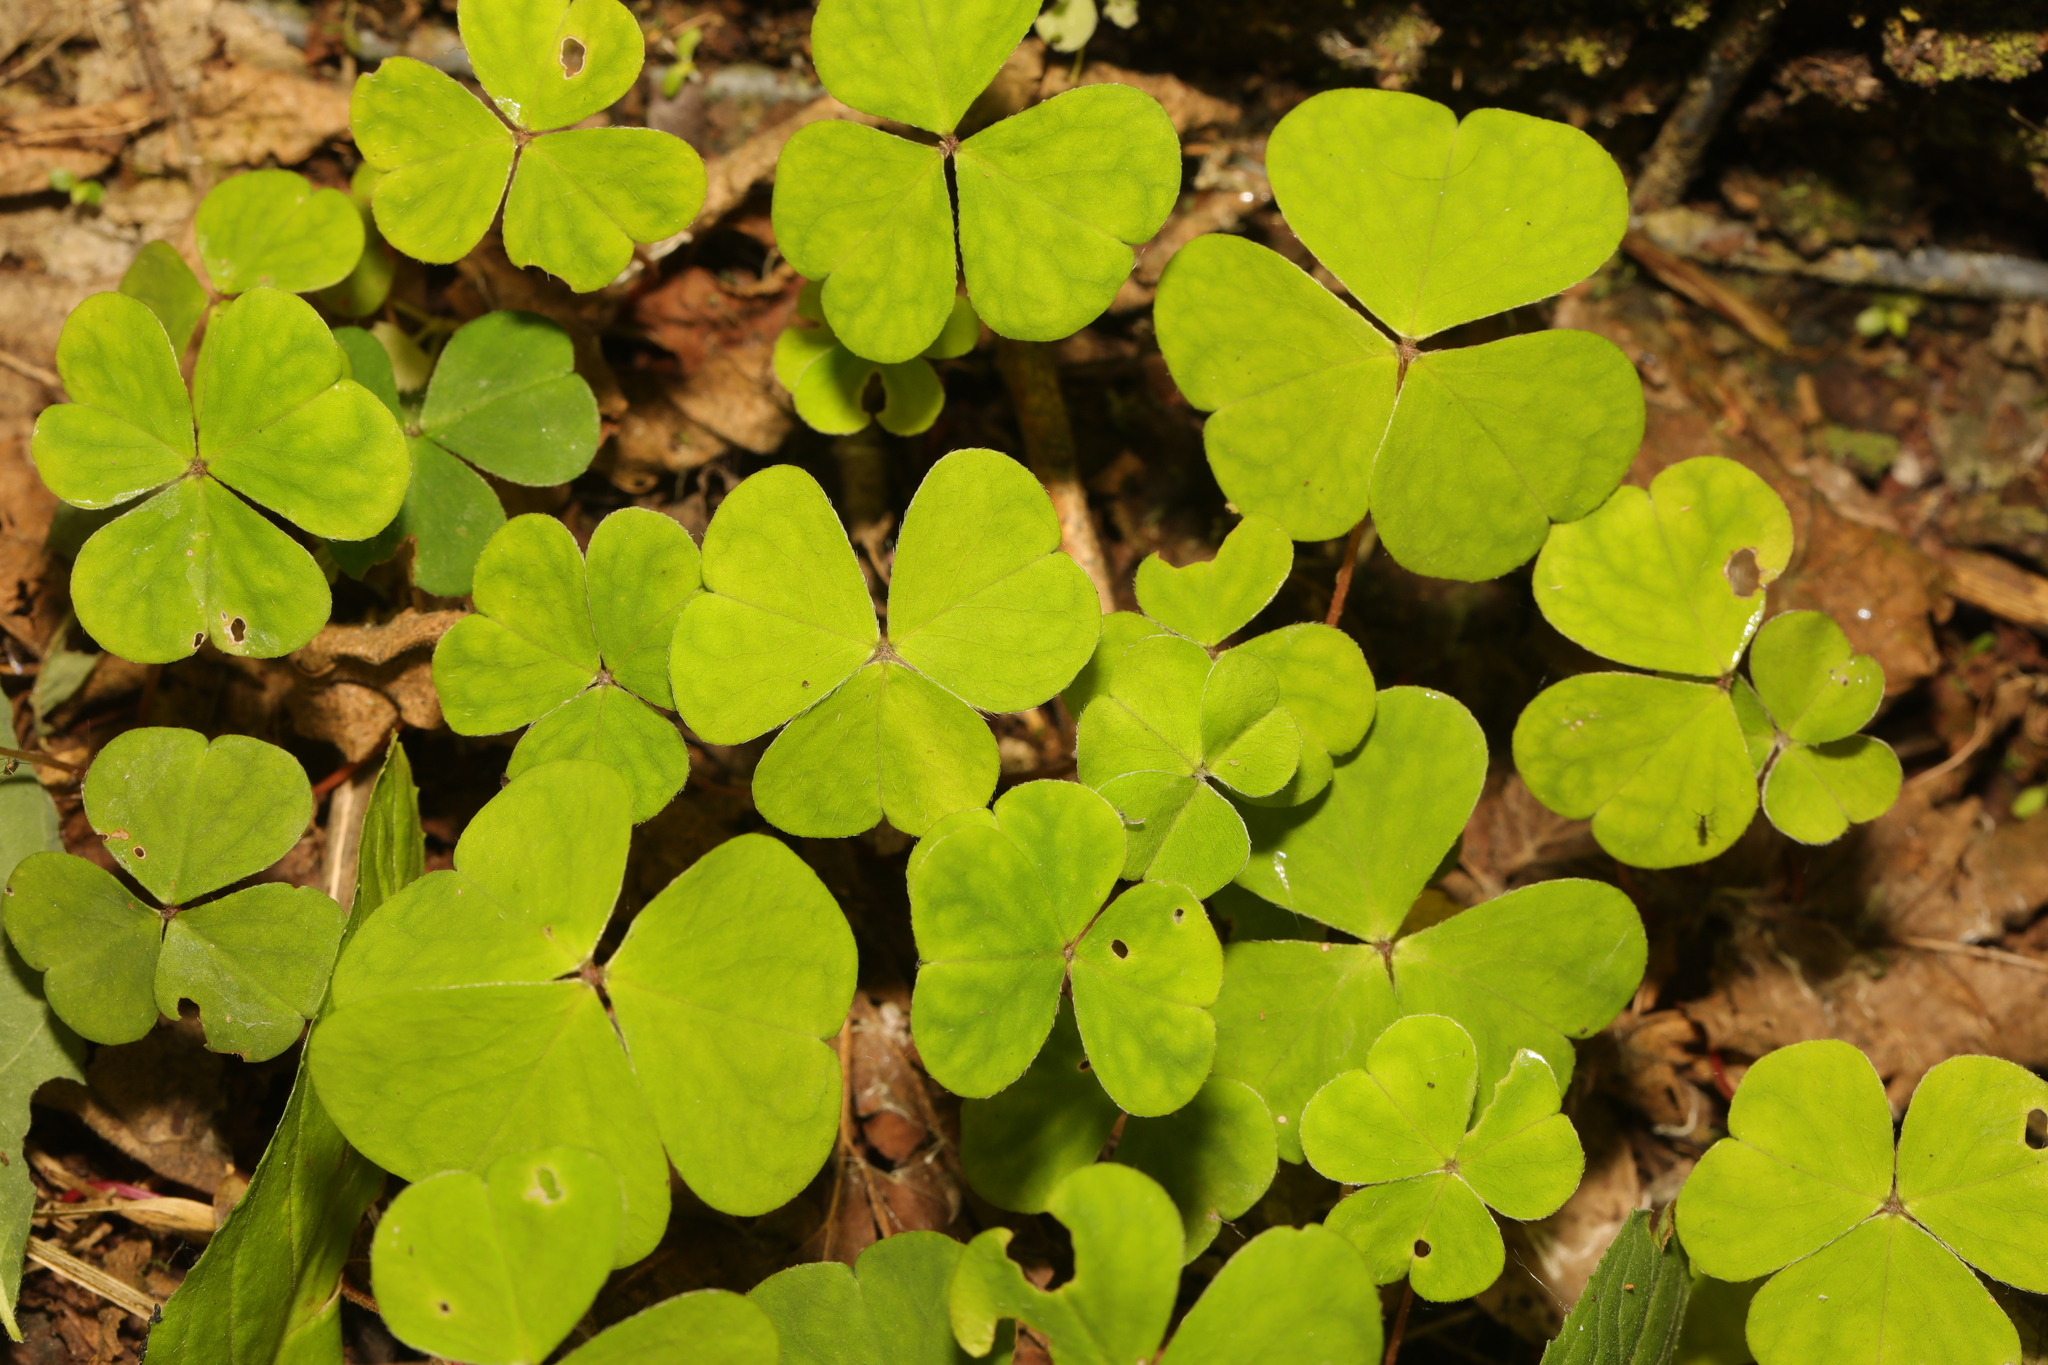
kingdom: Plantae
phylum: Tracheophyta
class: Magnoliopsida
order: Oxalidales
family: Oxalidaceae
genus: Oxalis
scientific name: Oxalis acetosella
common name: Wood-sorrel
